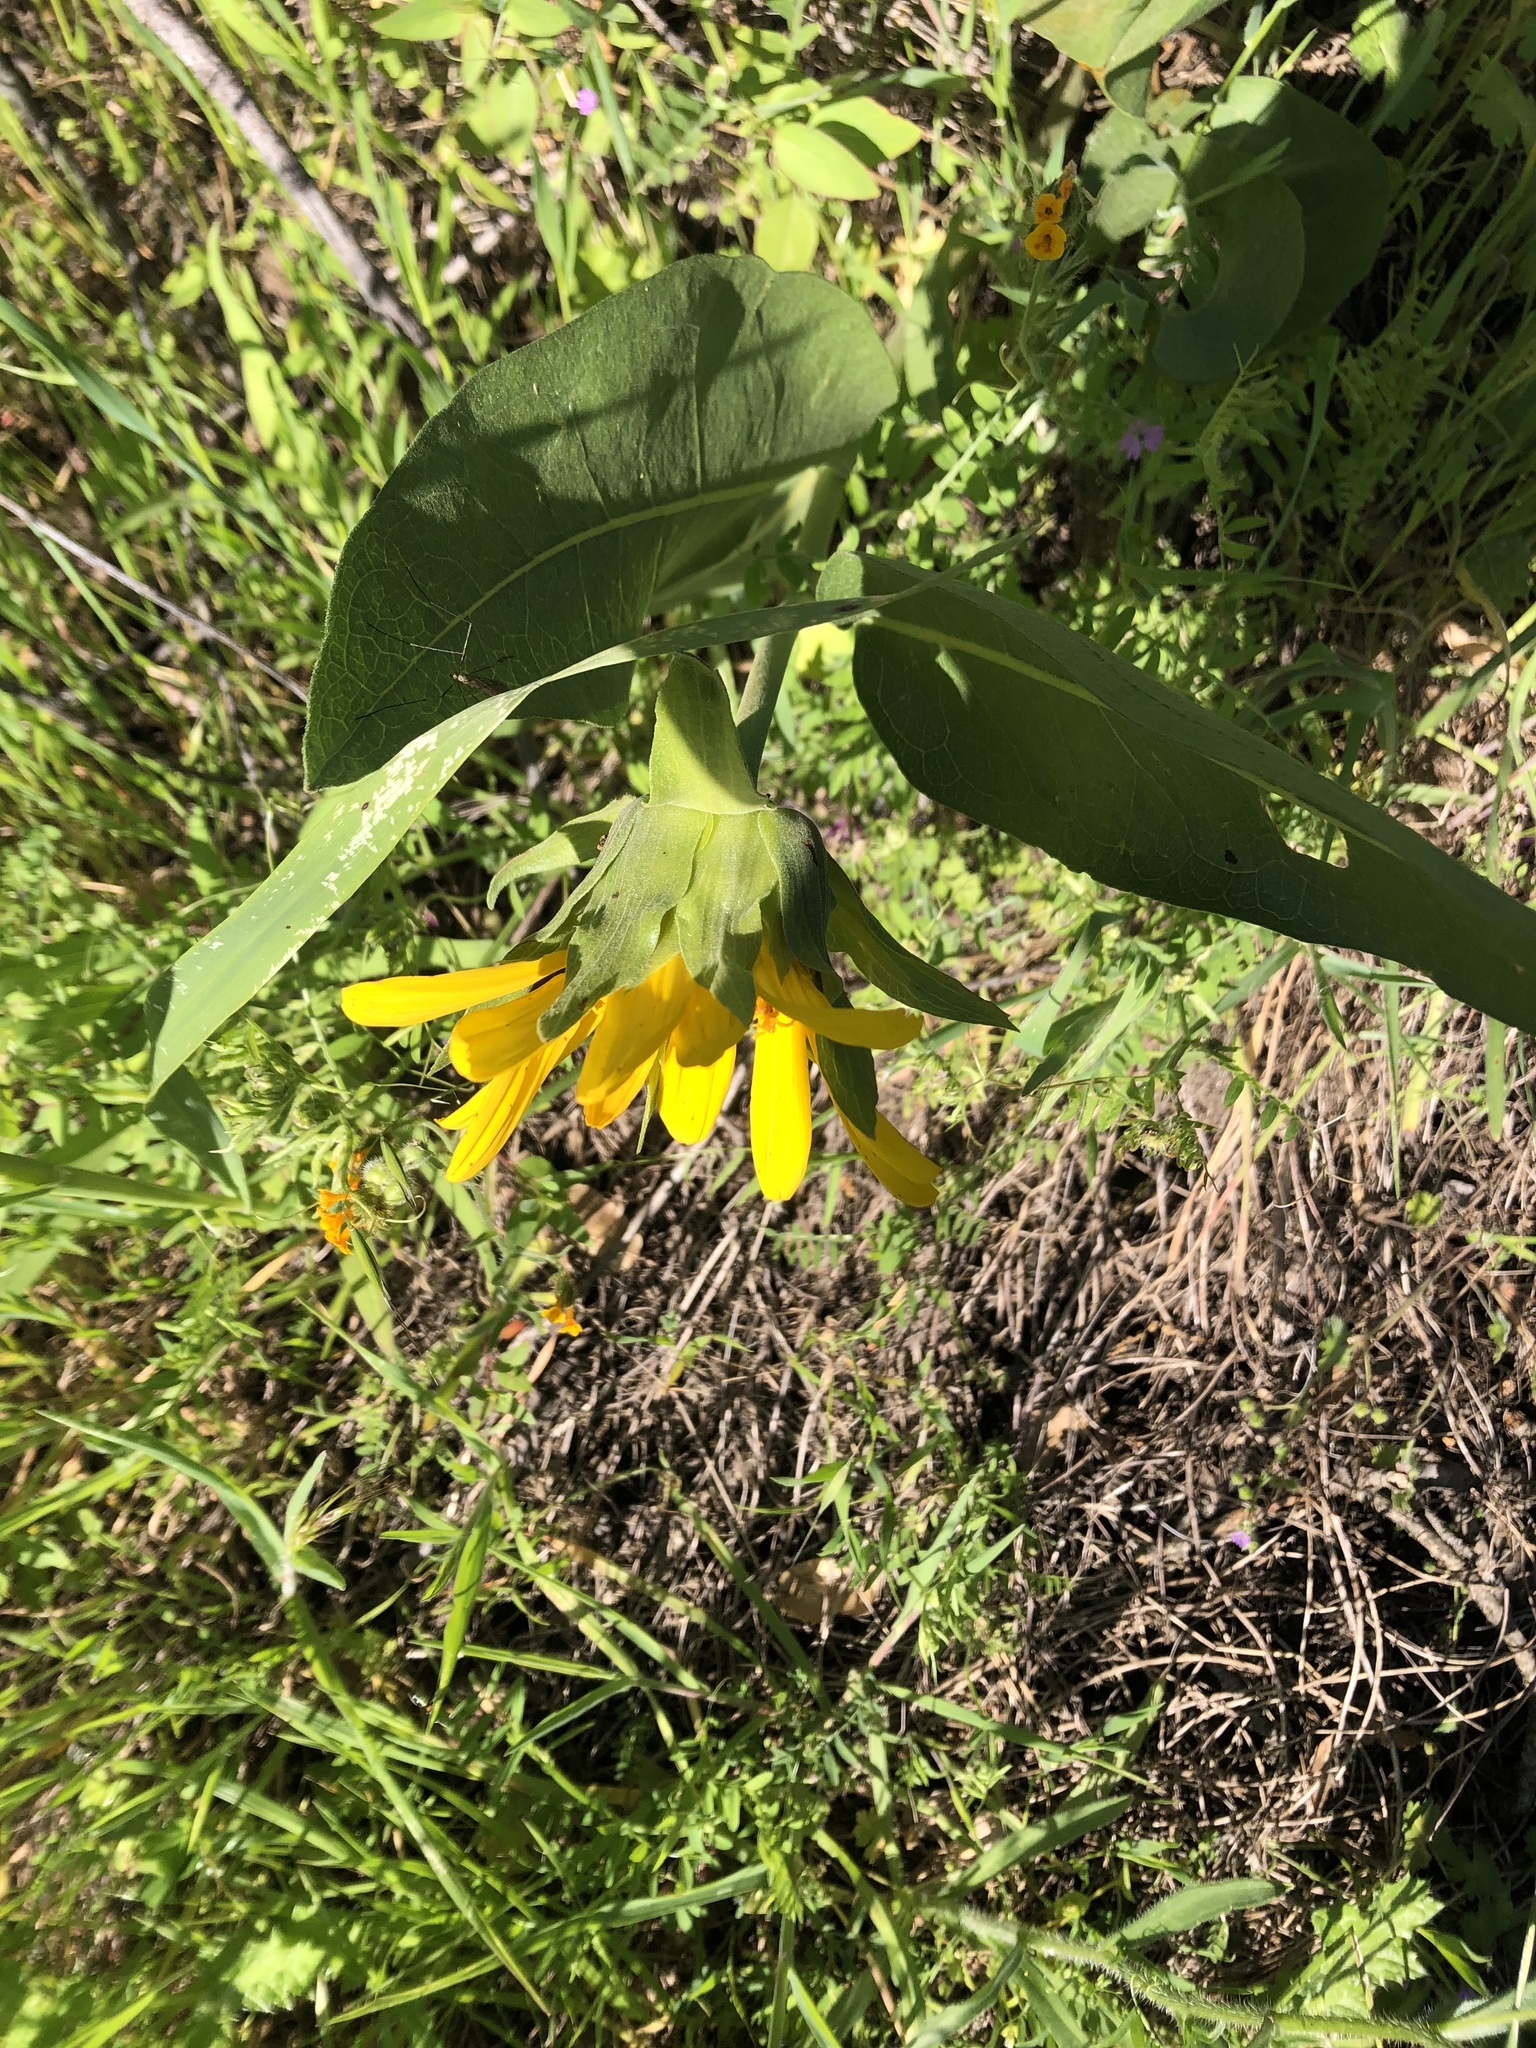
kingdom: Plantae
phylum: Tracheophyta
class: Magnoliopsida
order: Asterales
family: Asteraceae
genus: Wyethia
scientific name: Wyethia glabra
